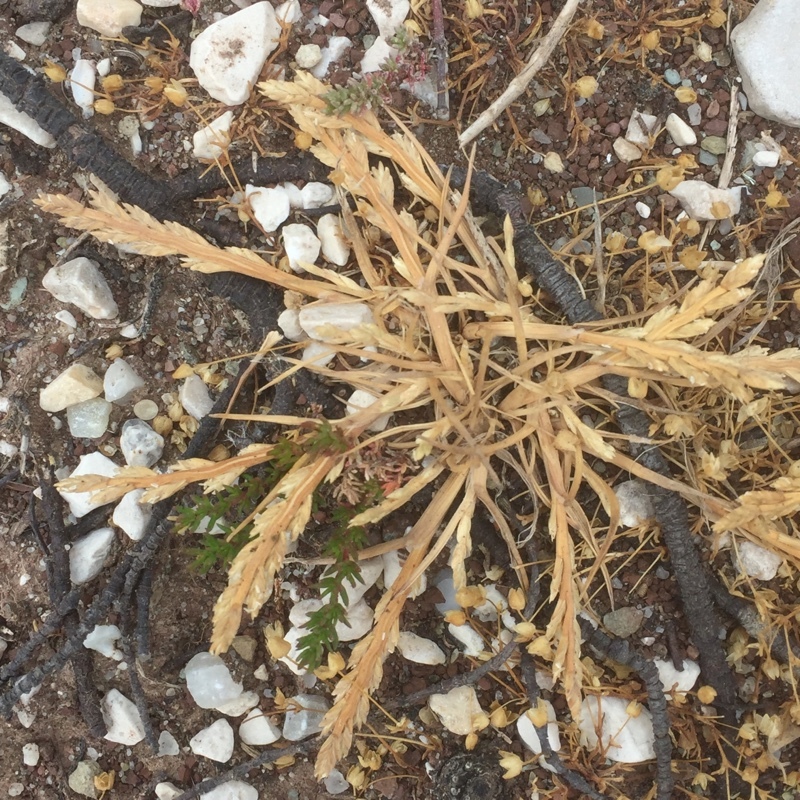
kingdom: Plantae
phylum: Tracheophyta
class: Liliopsida
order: Poales
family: Poaceae
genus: Catapodium
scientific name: Catapodium marinum
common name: Sea fern-grass
